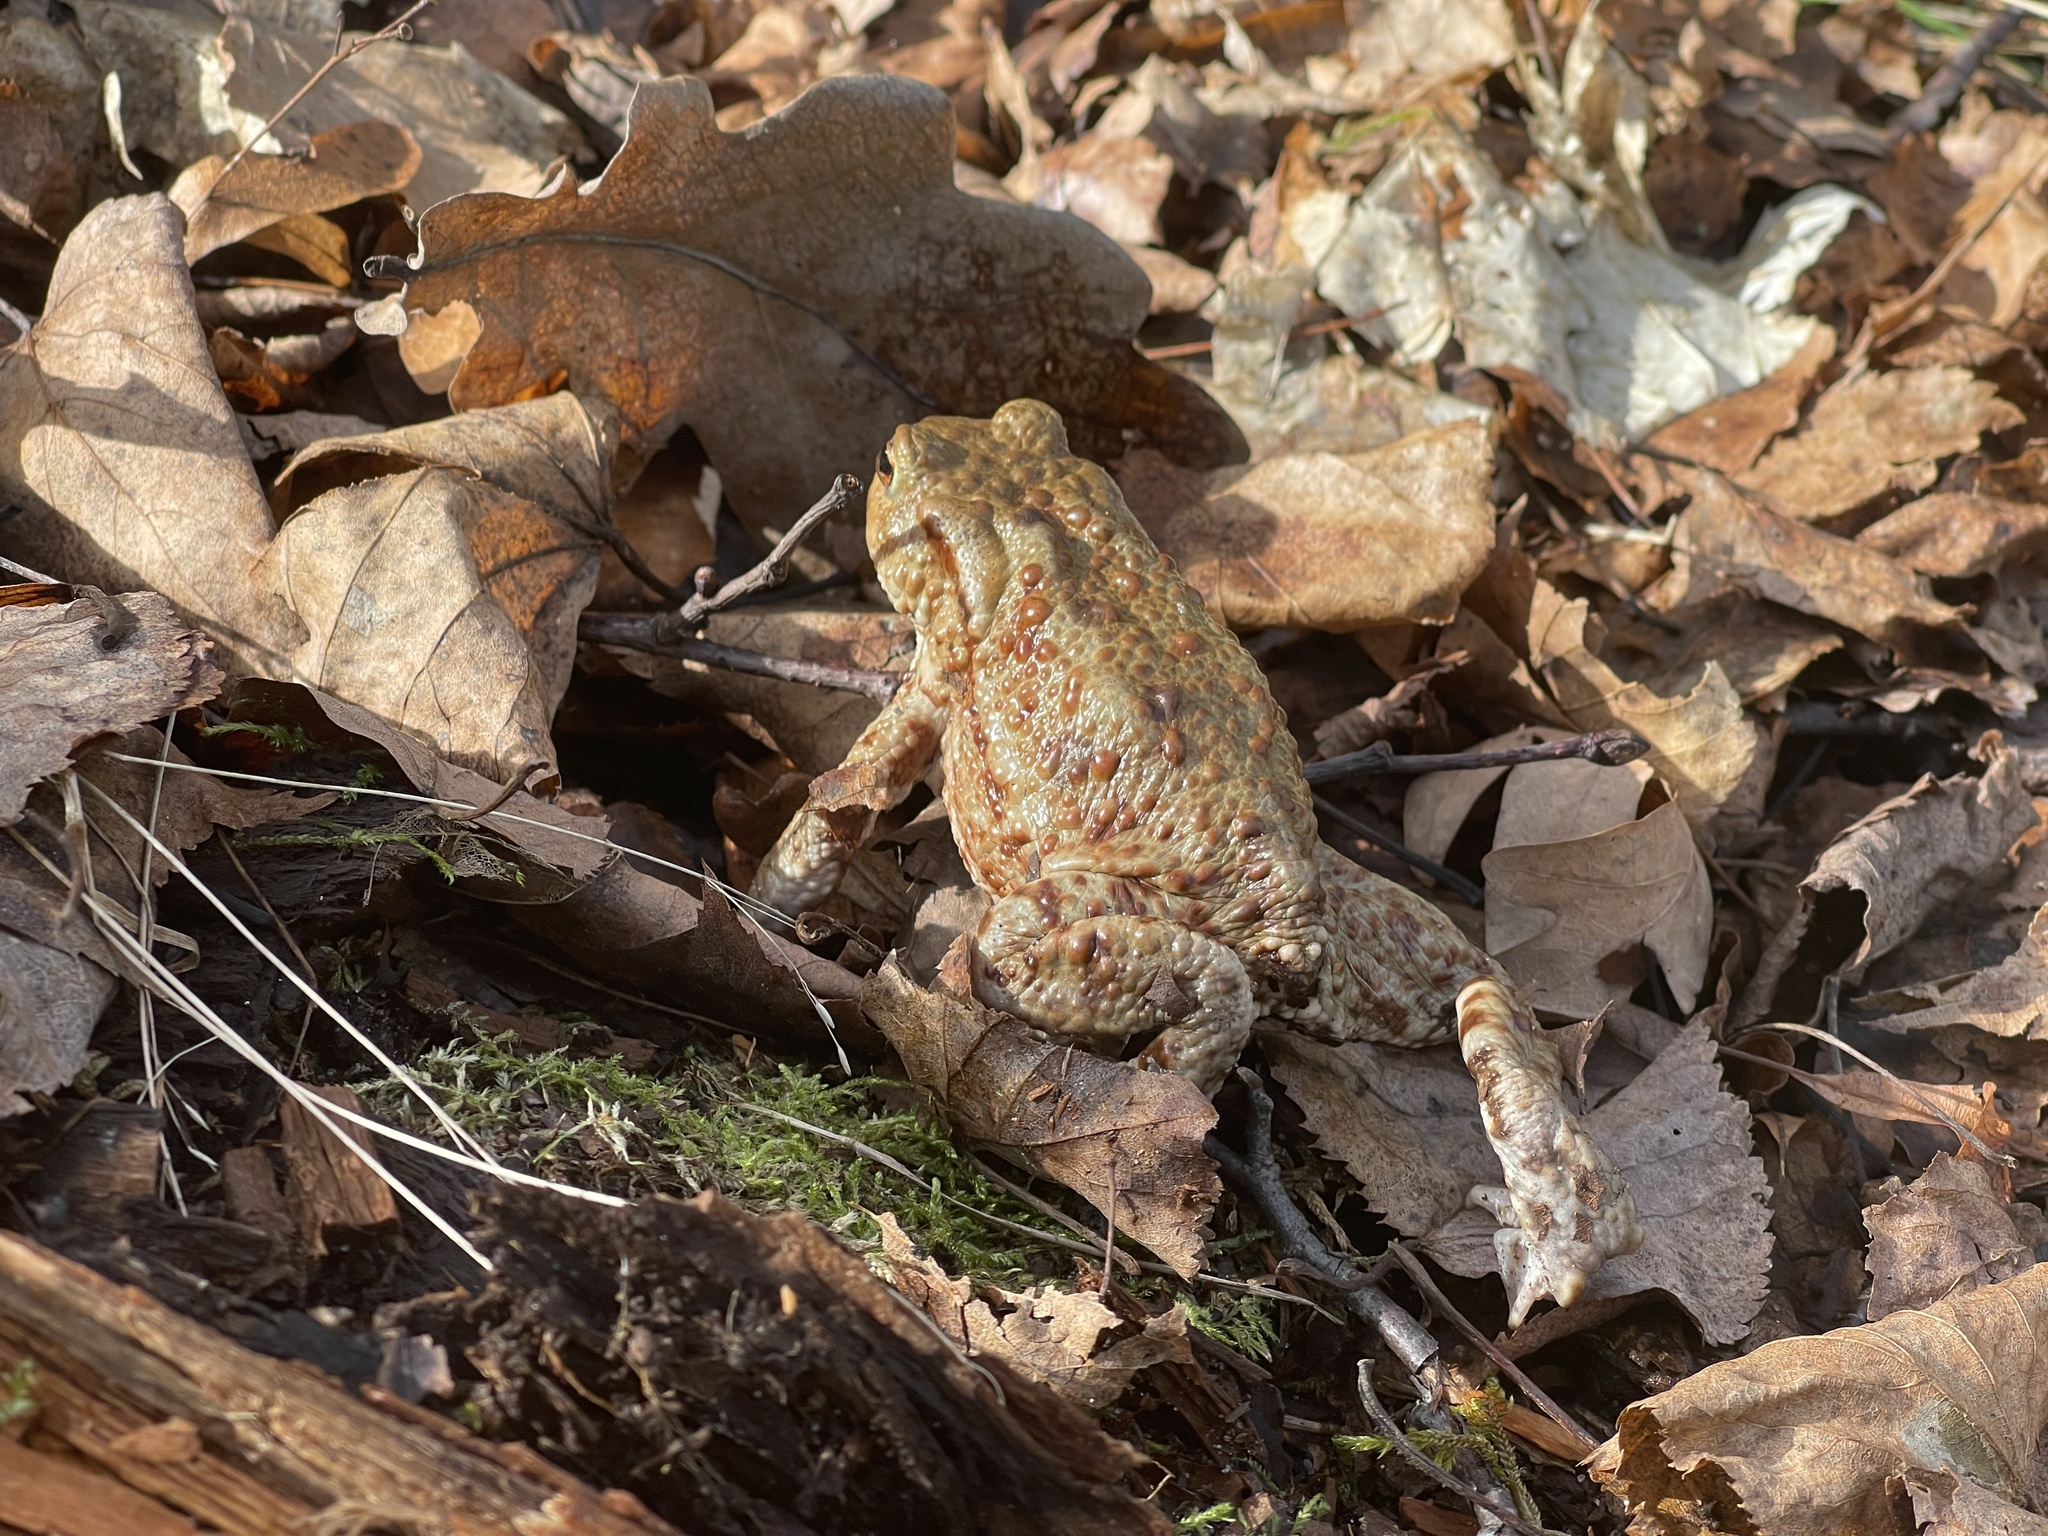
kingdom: Animalia
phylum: Chordata
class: Amphibia
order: Anura
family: Bufonidae
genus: Bufo
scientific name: Bufo bufo
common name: Common toad
